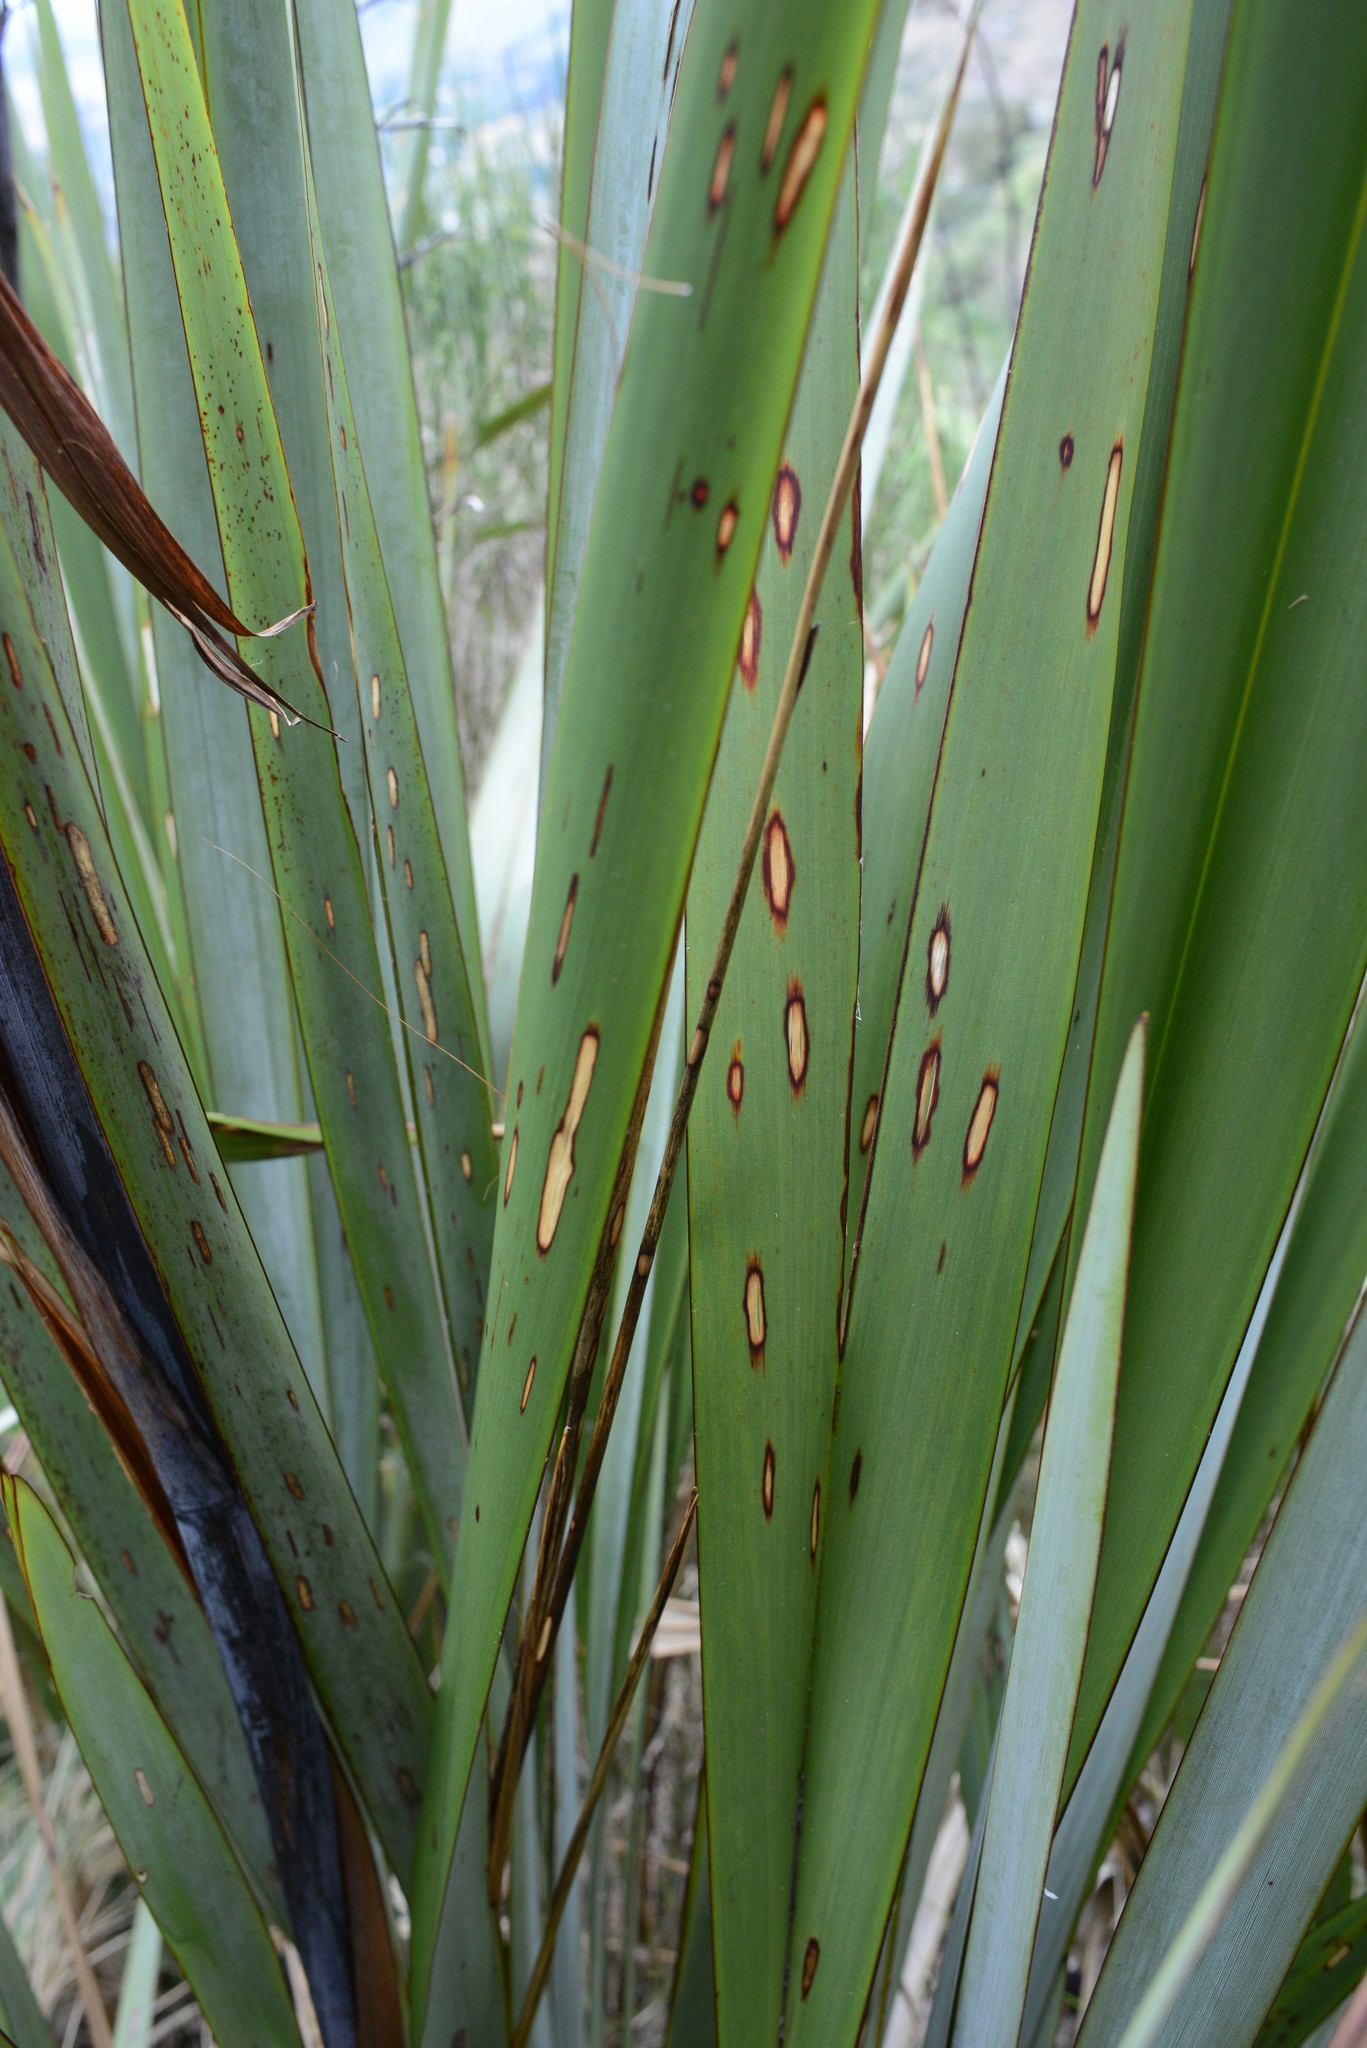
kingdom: Animalia
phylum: Arthropoda
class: Insecta
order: Lepidoptera
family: Geometridae
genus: Orthoclydon
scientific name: Orthoclydon praefectata
